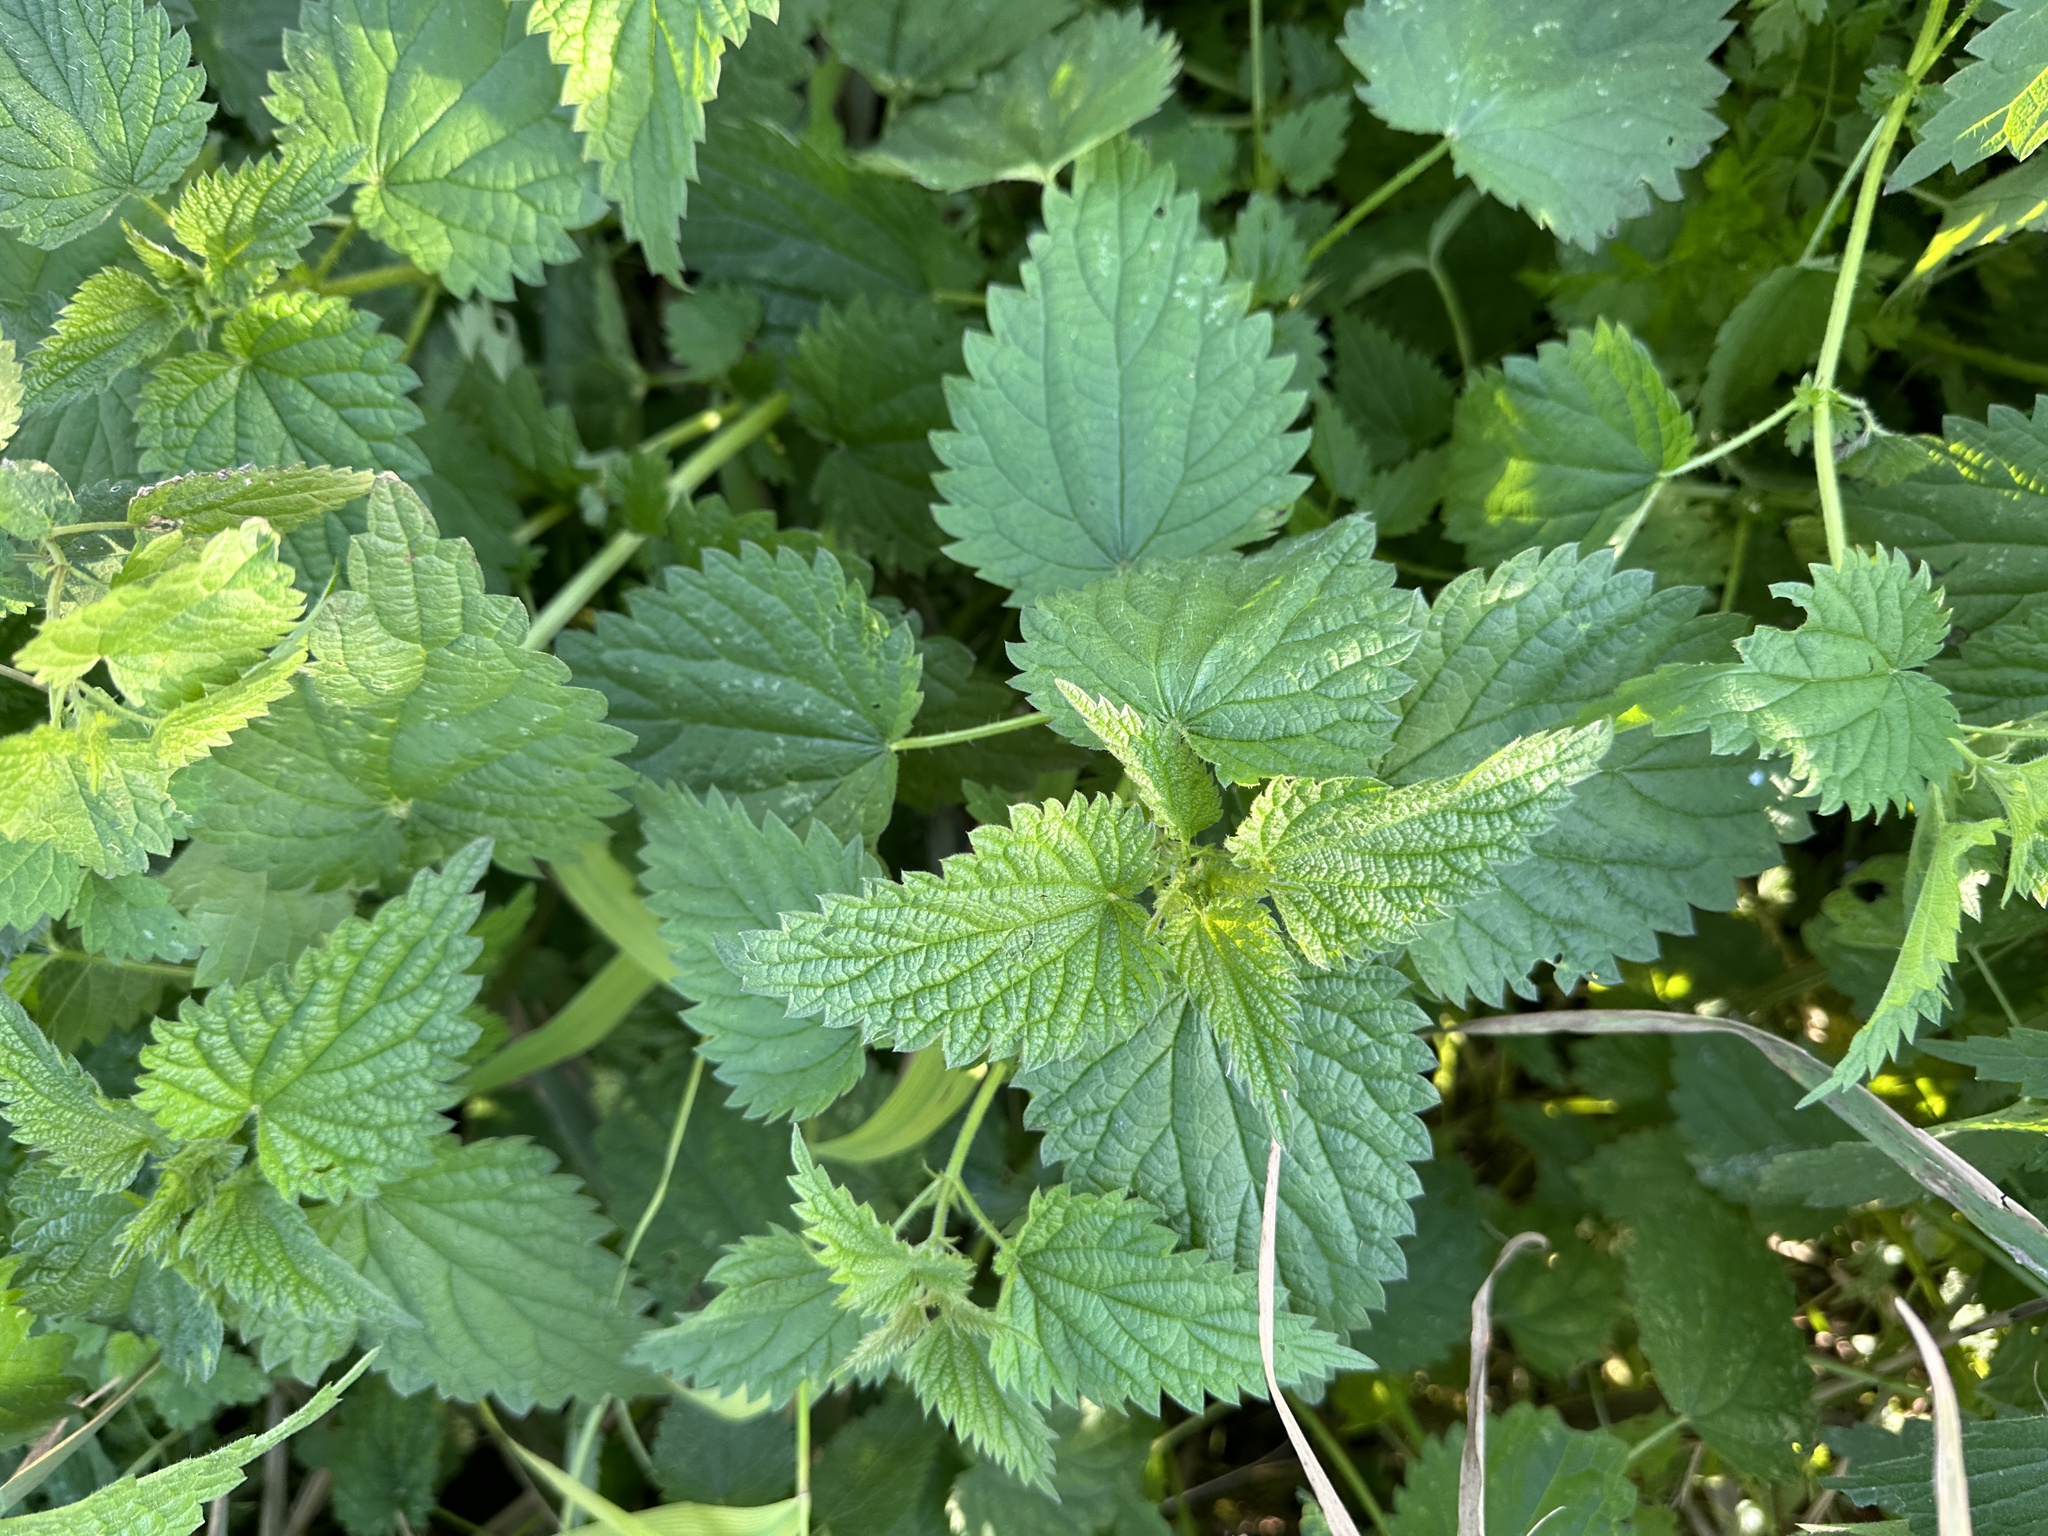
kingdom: Plantae
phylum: Tracheophyta
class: Magnoliopsida
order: Rosales
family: Urticaceae
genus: Urtica
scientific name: Urtica dioica
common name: Common nettle
